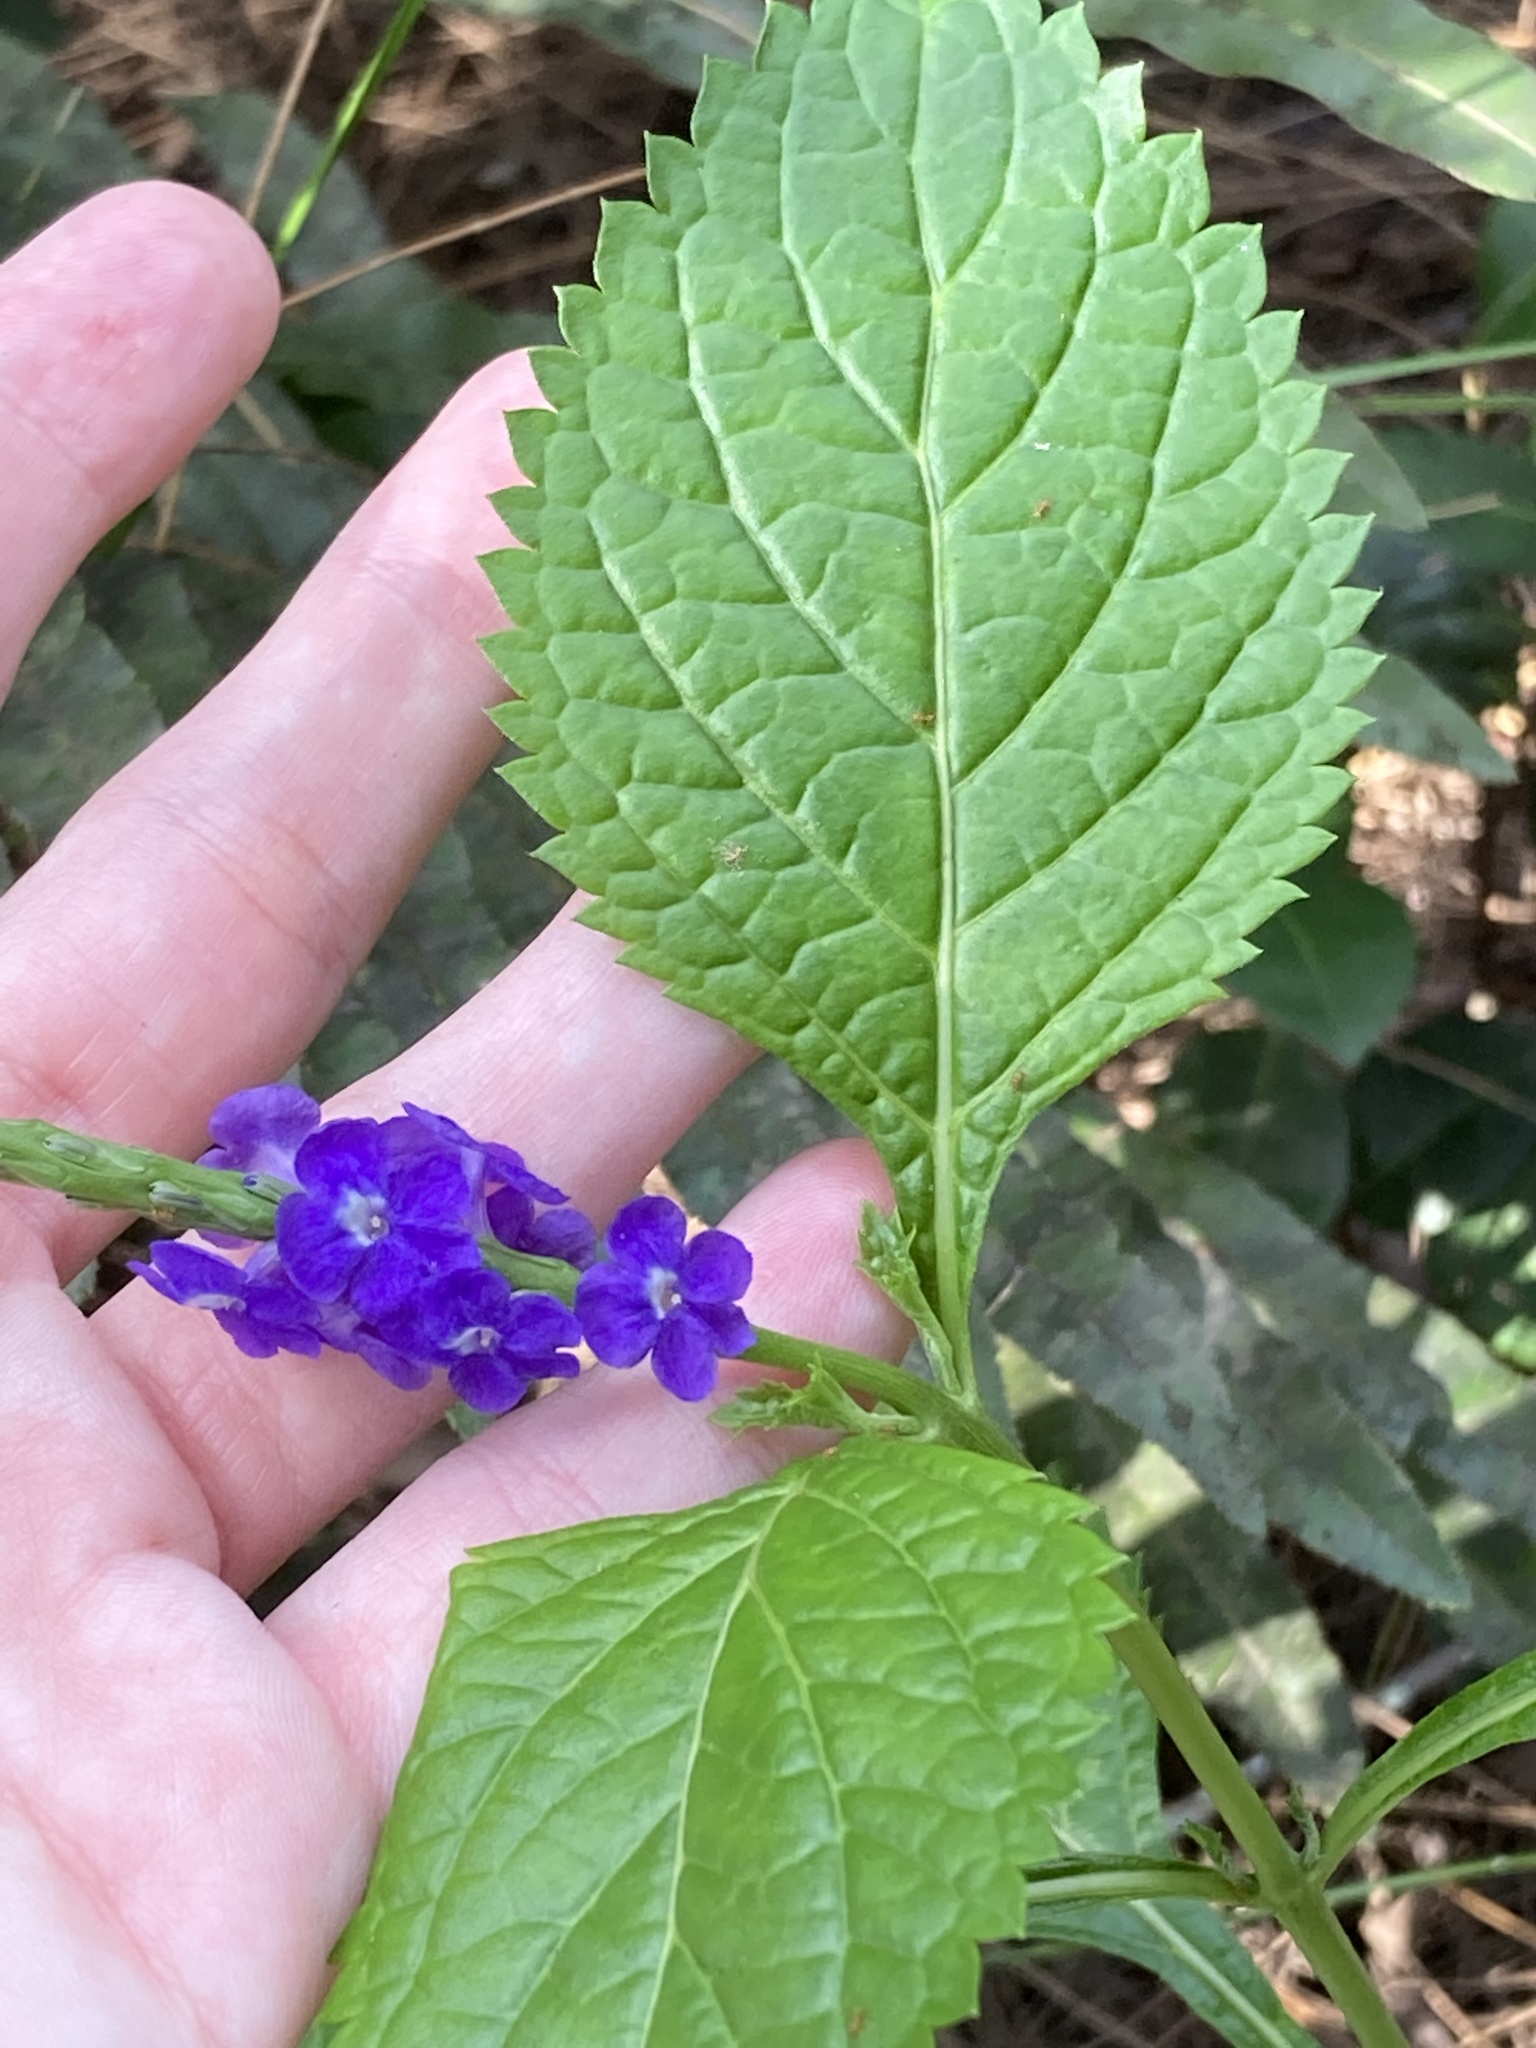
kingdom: Plantae
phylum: Tracheophyta
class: Magnoliopsida
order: Lamiales
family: Verbenaceae
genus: Stachytarpheta
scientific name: Stachytarpheta cayennensis
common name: Cayenne porterweed
